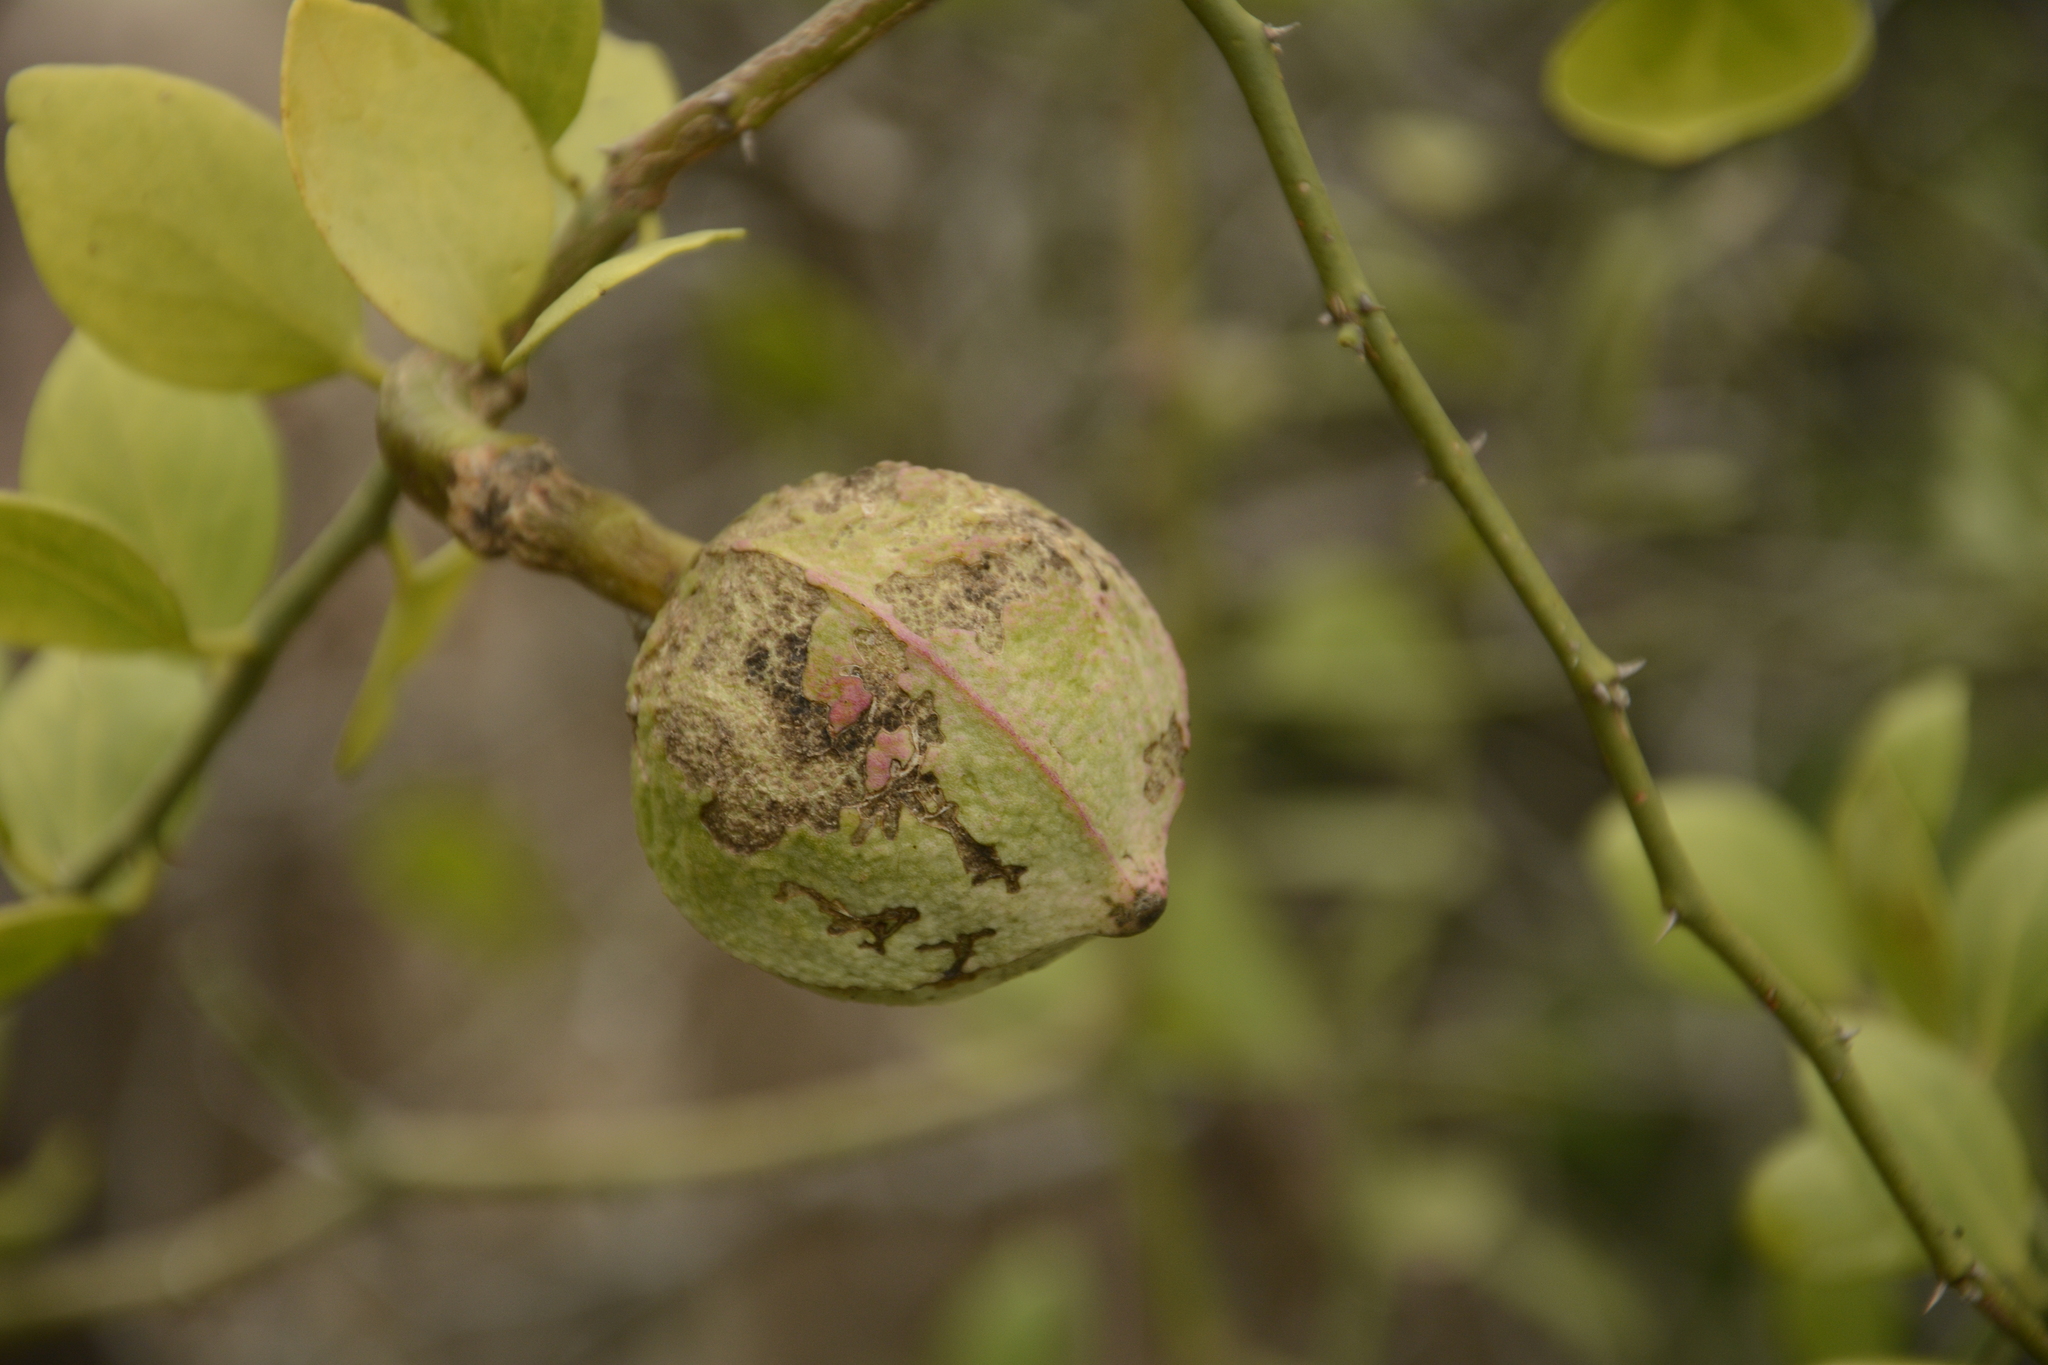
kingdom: Plantae
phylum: Tracheophyta
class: Magnoliopsida
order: Brassicales
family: Capparaceae
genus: Capparis
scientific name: Capparis divaricata
